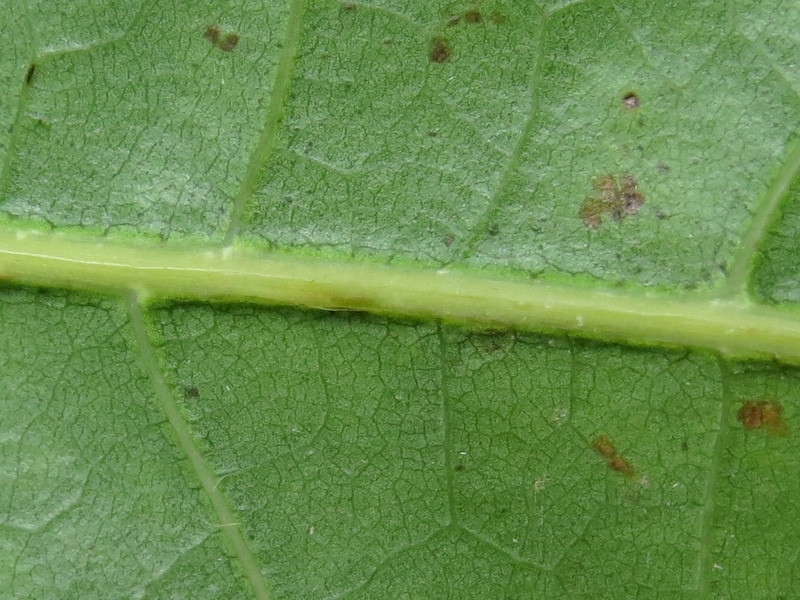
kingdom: Animalia
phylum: Arthropoda
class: Insecta
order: Hymenoptera
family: Cynipidae
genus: Zopheroteras
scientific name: Zopheroteras
